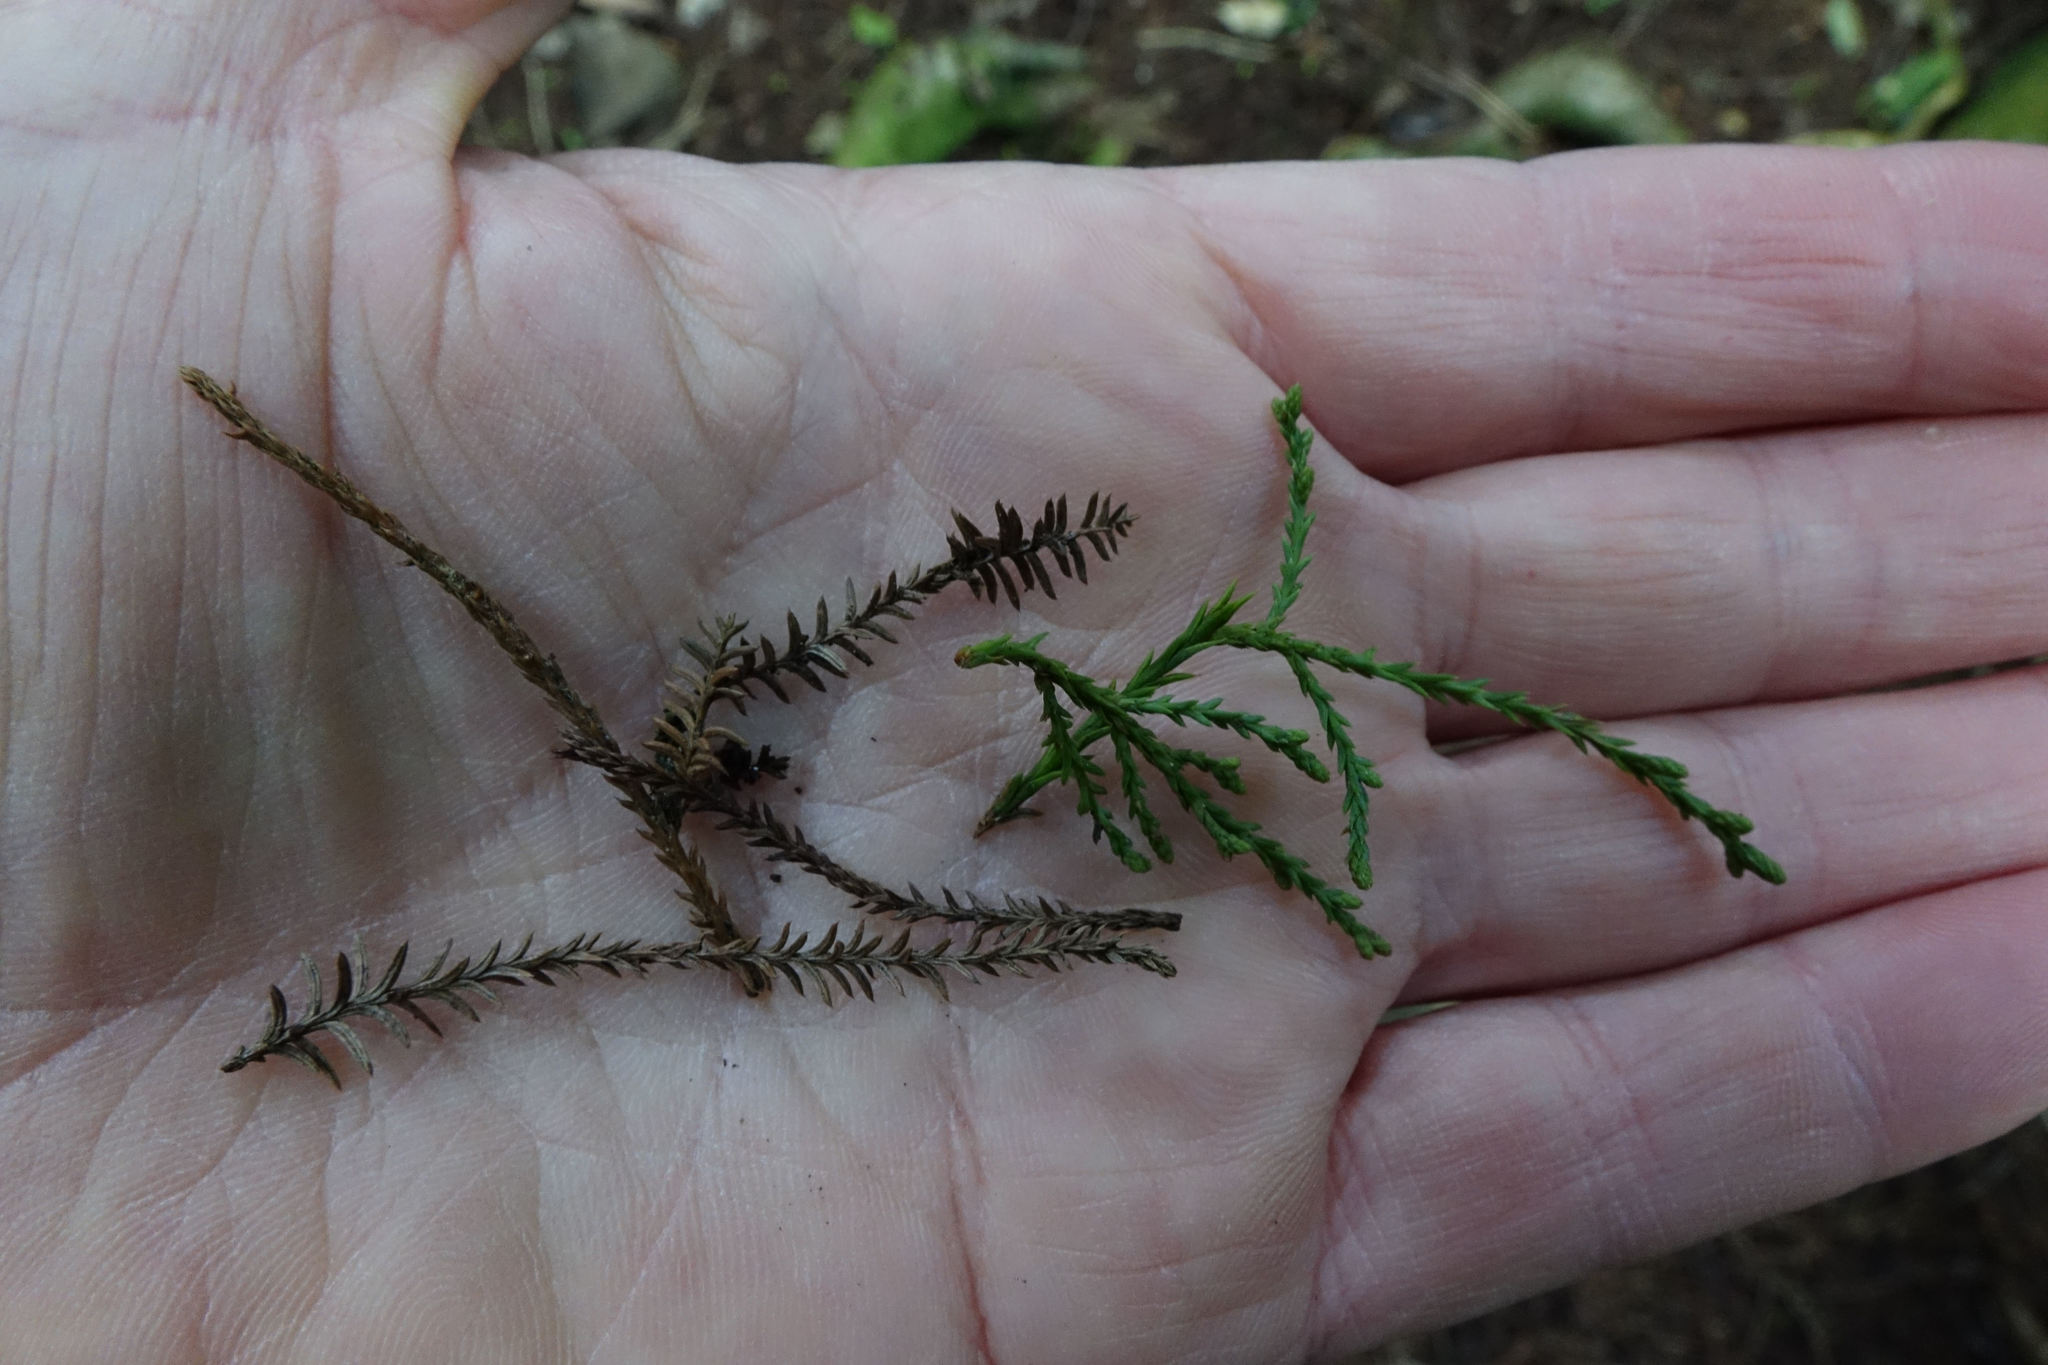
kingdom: Plantae
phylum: Tracheophyta
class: Pinopsida
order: Pinales
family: Podocarpaceae
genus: Dacrycarpus
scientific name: Dacrycarpus dacrydioides
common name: White pine
